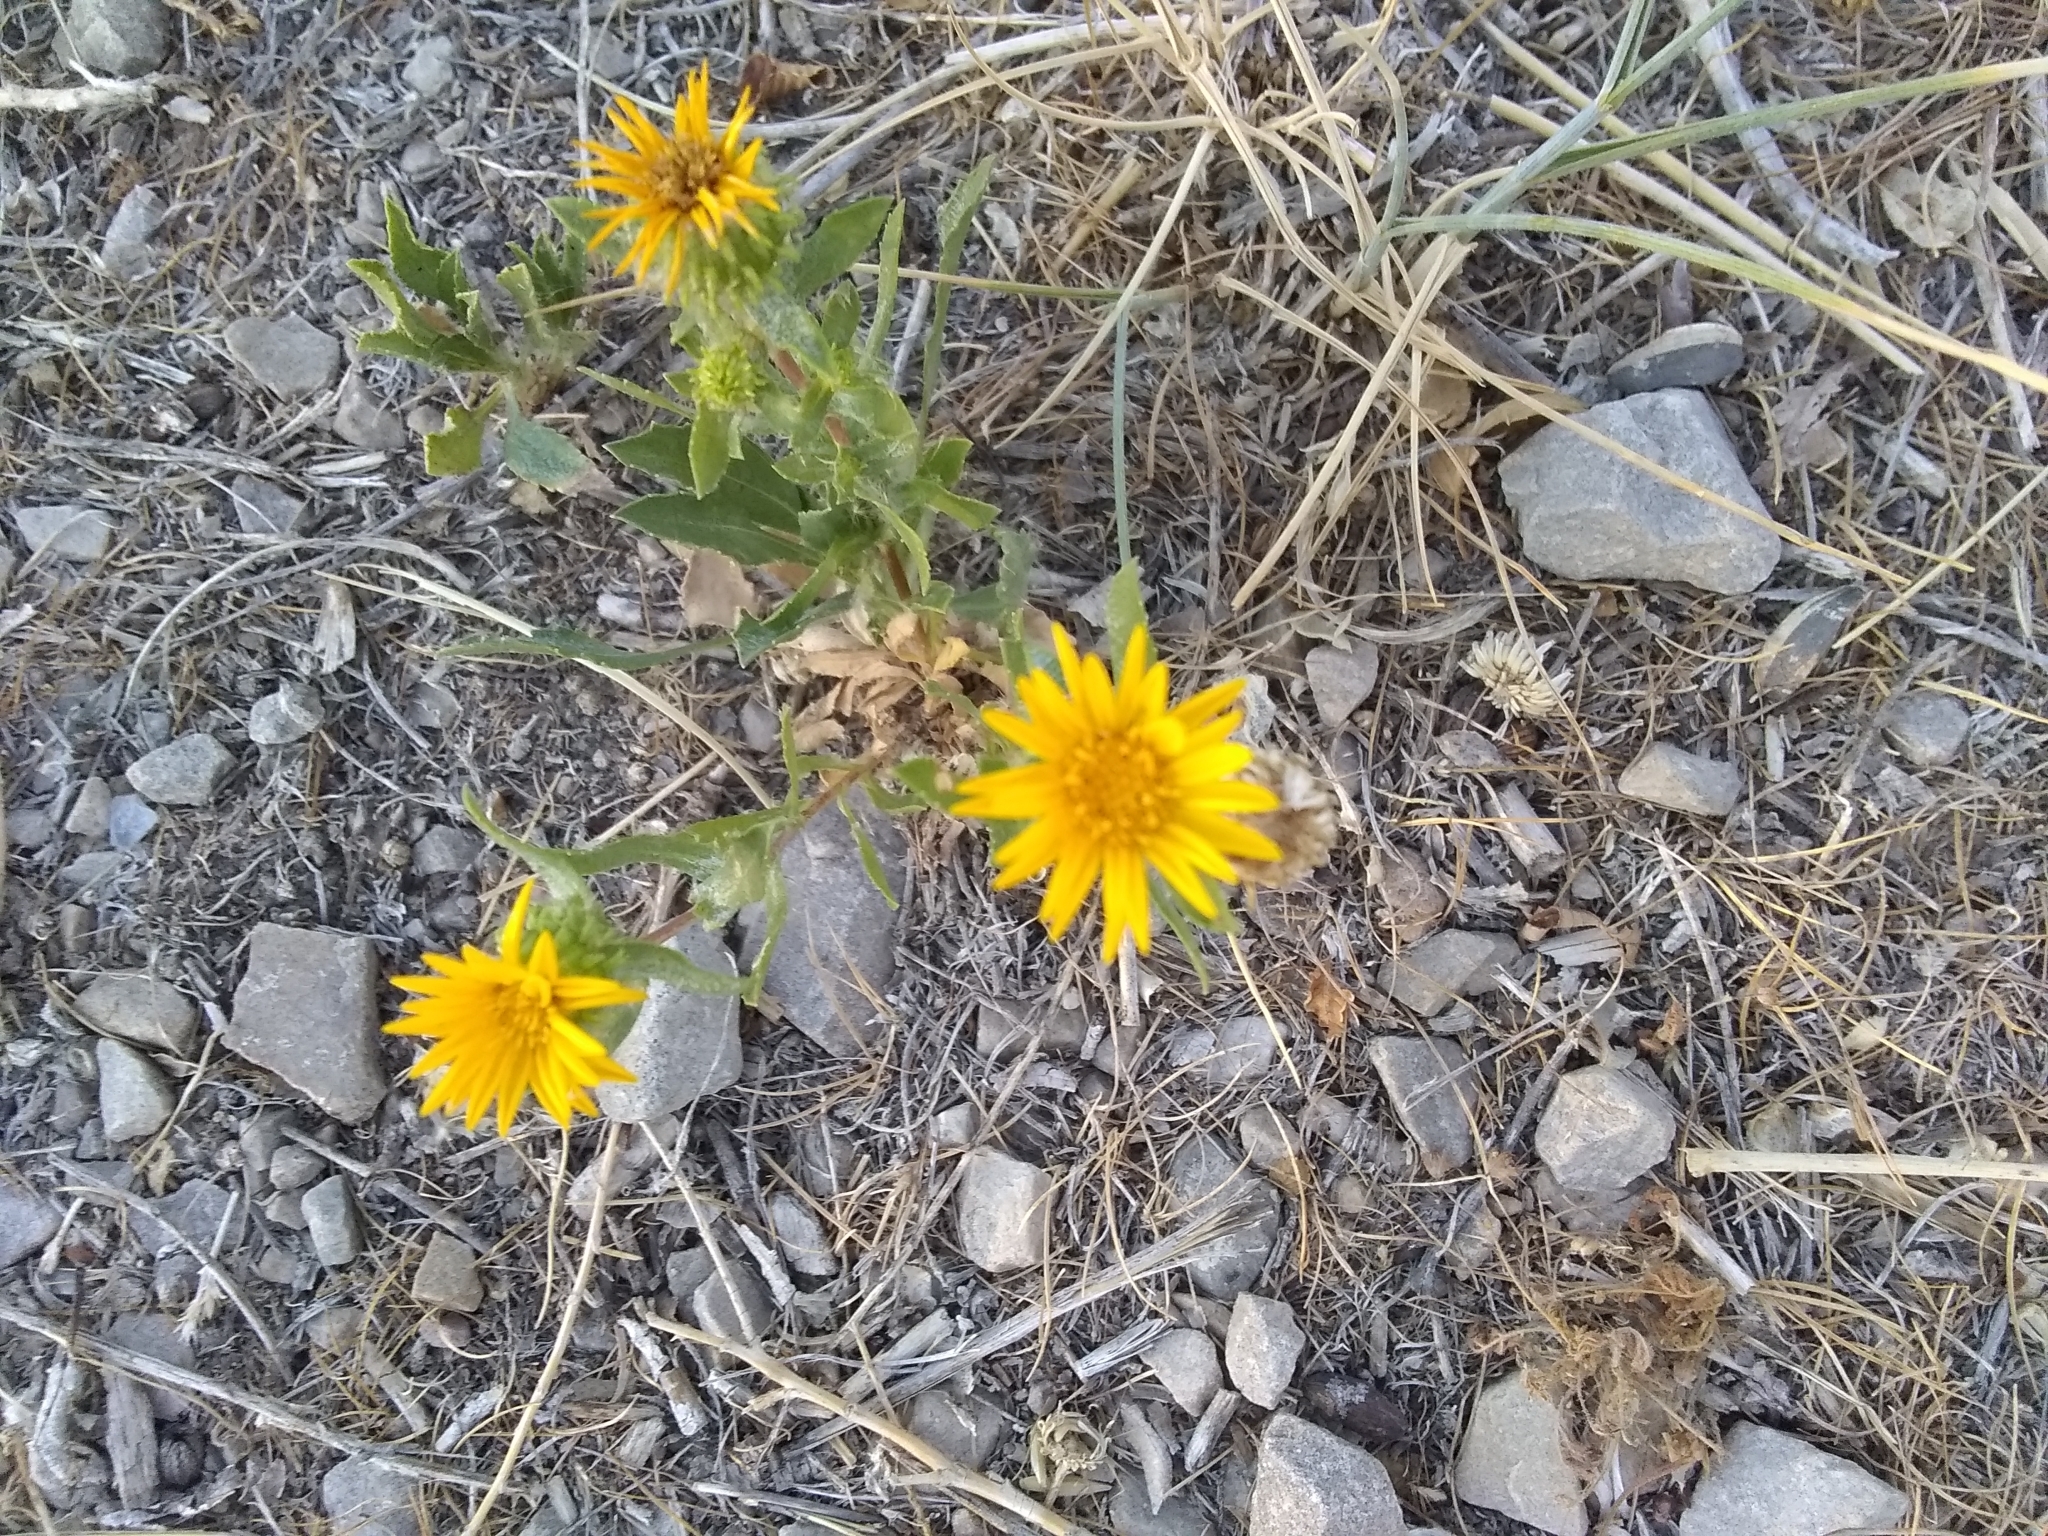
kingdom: Plantae
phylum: Tracheophyta
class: Magnoliopsida
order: Asterales
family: Asteraceae
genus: Grindelia
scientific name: Grindelia squarrosa
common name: Curly-cup gumweed
